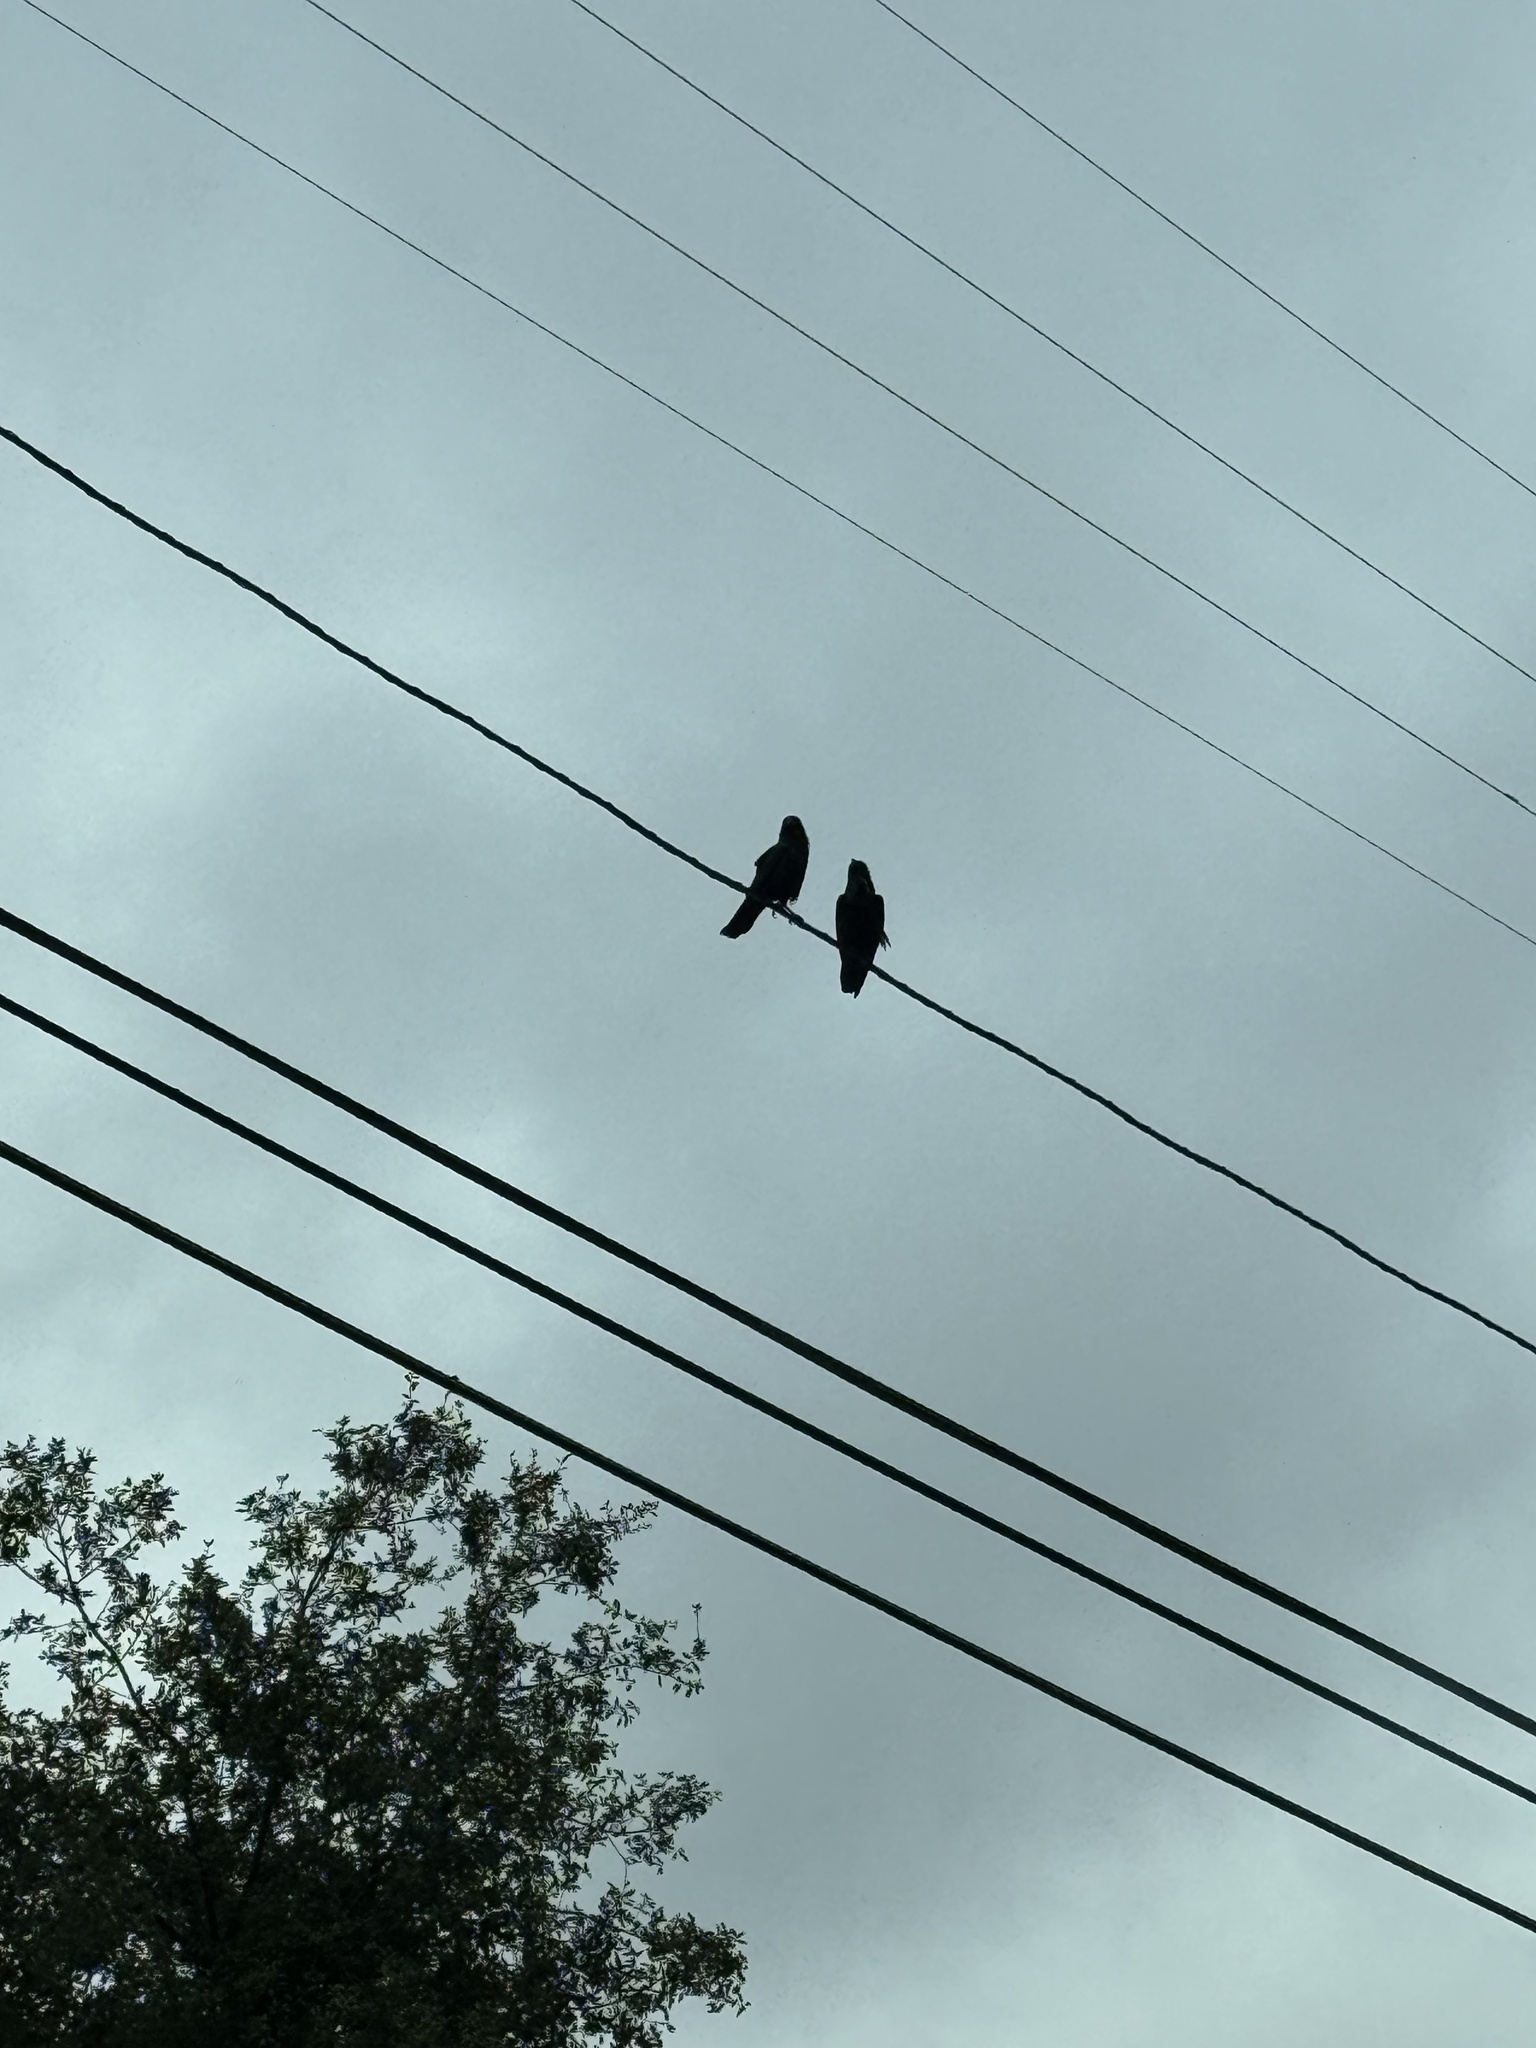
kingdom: Animalia
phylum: Chordata
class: Aves
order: Passeriformes
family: Corvidae
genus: Corvus
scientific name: Corvus corax
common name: Common raven
